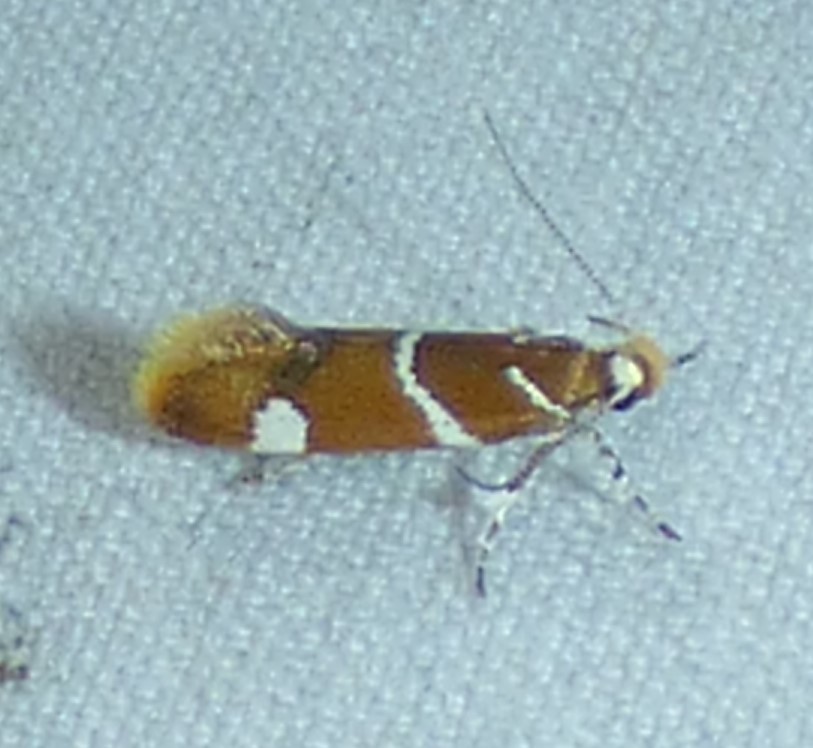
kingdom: Animalia
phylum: Arthropoda
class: Insecta
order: Lepidoptera
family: Oecophoridae
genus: Promalactis
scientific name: Promalactis suzukiella
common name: Moth
